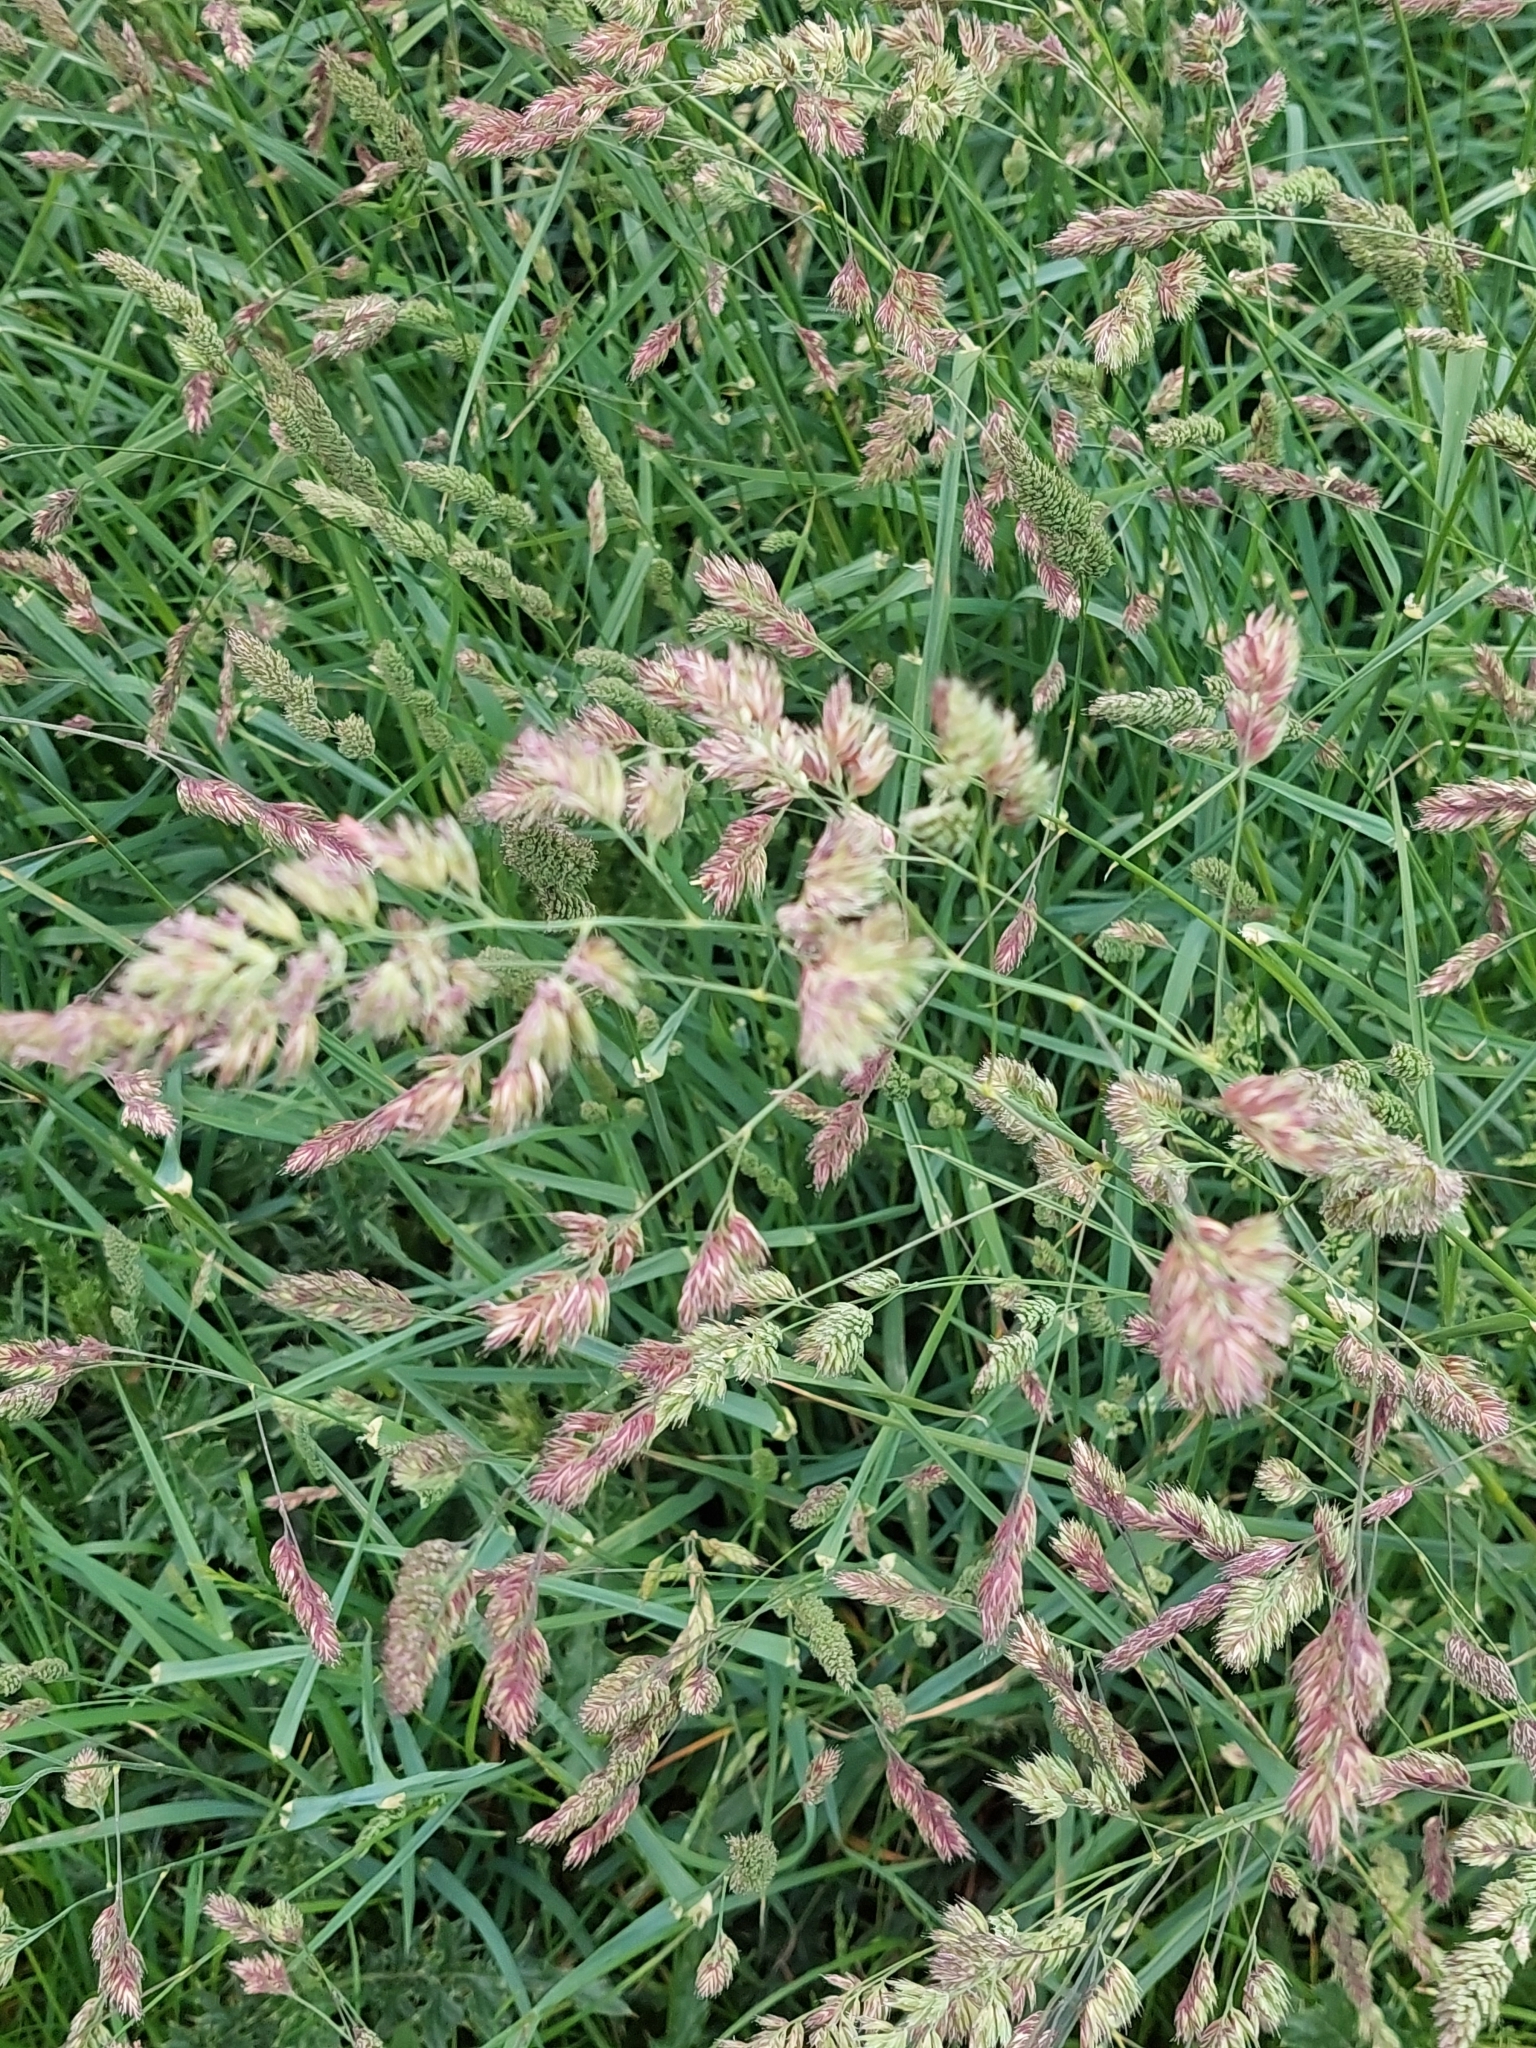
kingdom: Plantae
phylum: Tracheophyta
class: Liliopsida
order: Poales
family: Poaceae
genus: Dactylis
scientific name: Dactylis glomerata
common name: Orchardgrass
